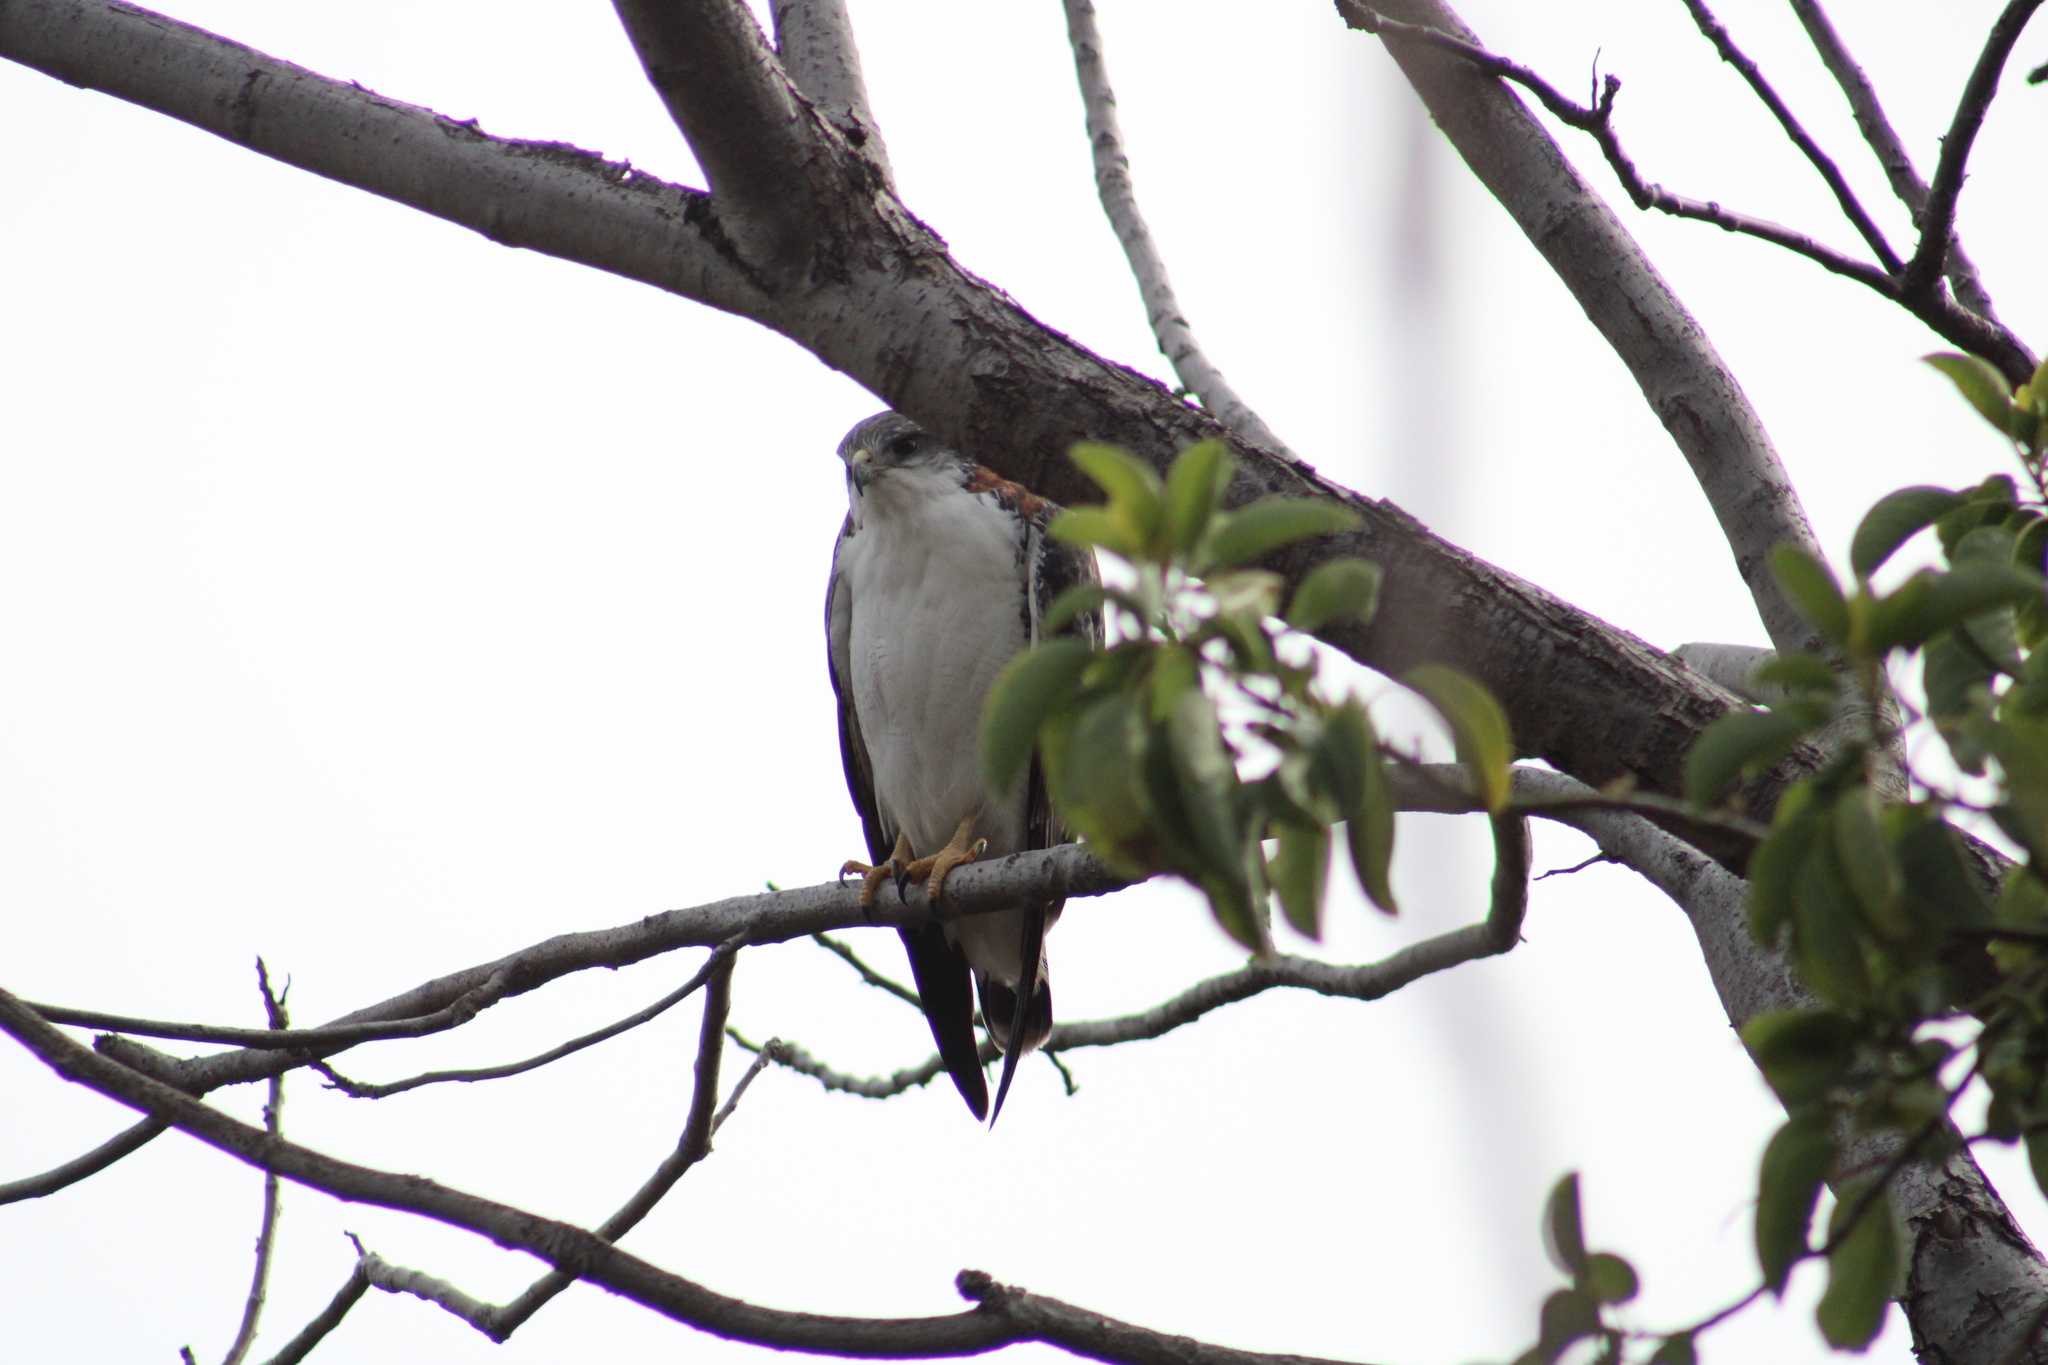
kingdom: Animalia
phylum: Chordata
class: Aves
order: Accipitriformes
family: Accipitridae
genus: Buteo
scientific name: Buteo polyosoma
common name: Variable hawk
